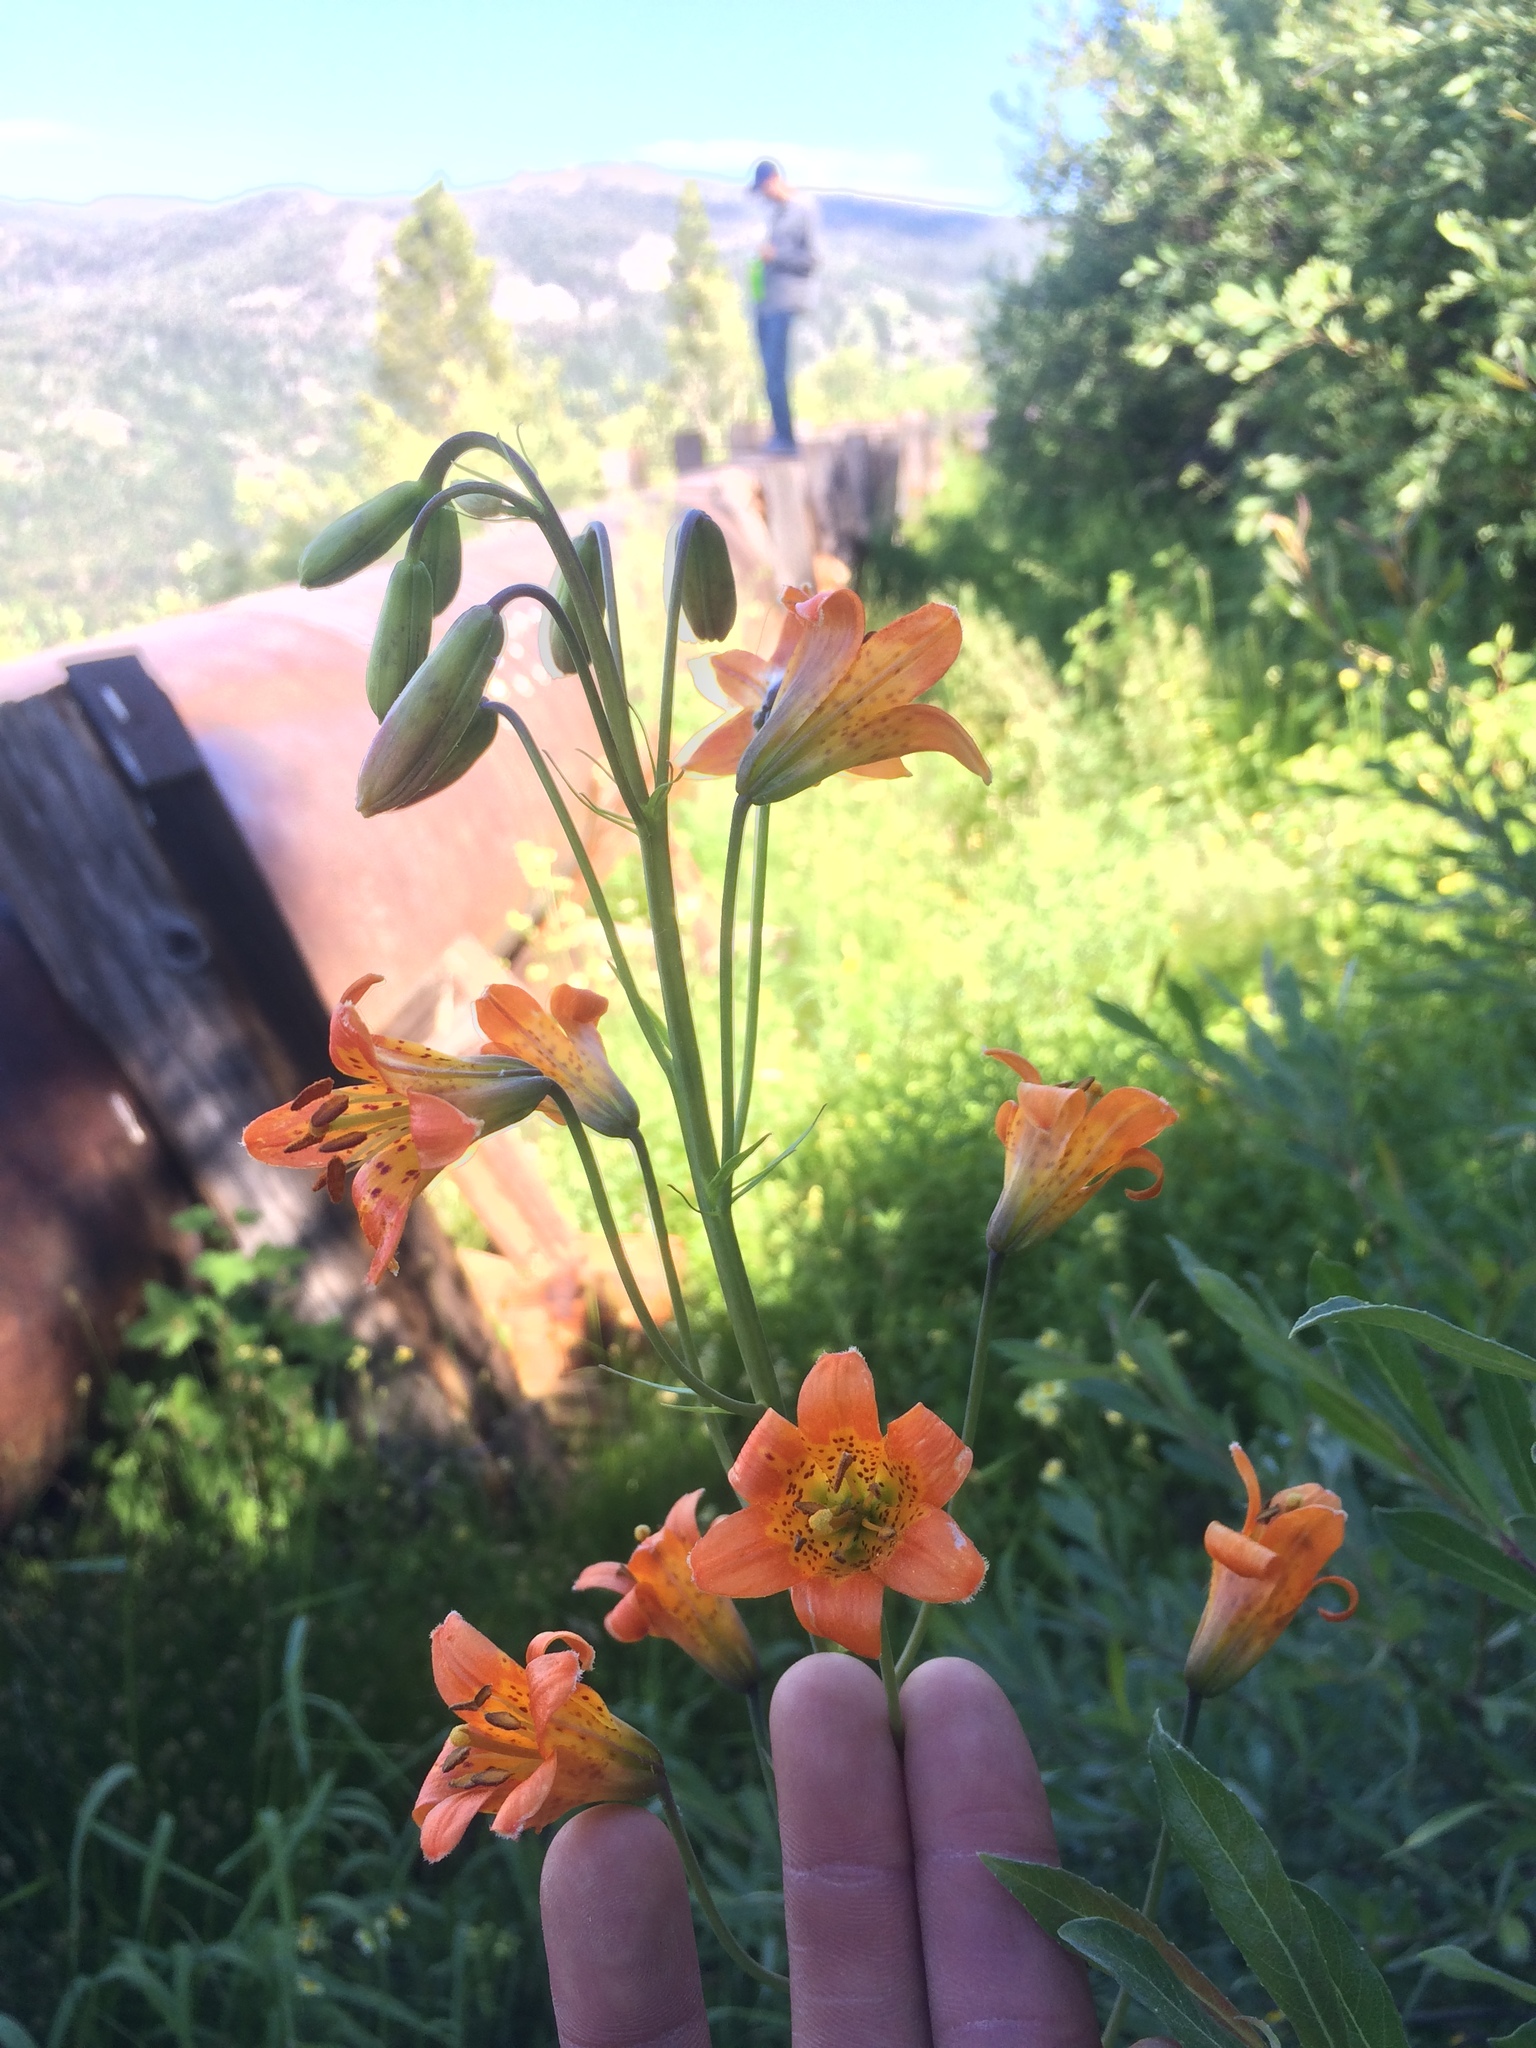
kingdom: Plantae
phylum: Tracheophyta
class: Liliopsida
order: Liliales
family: Liliaceae
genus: Lilium
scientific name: Lilium parvum
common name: Alpine lily
